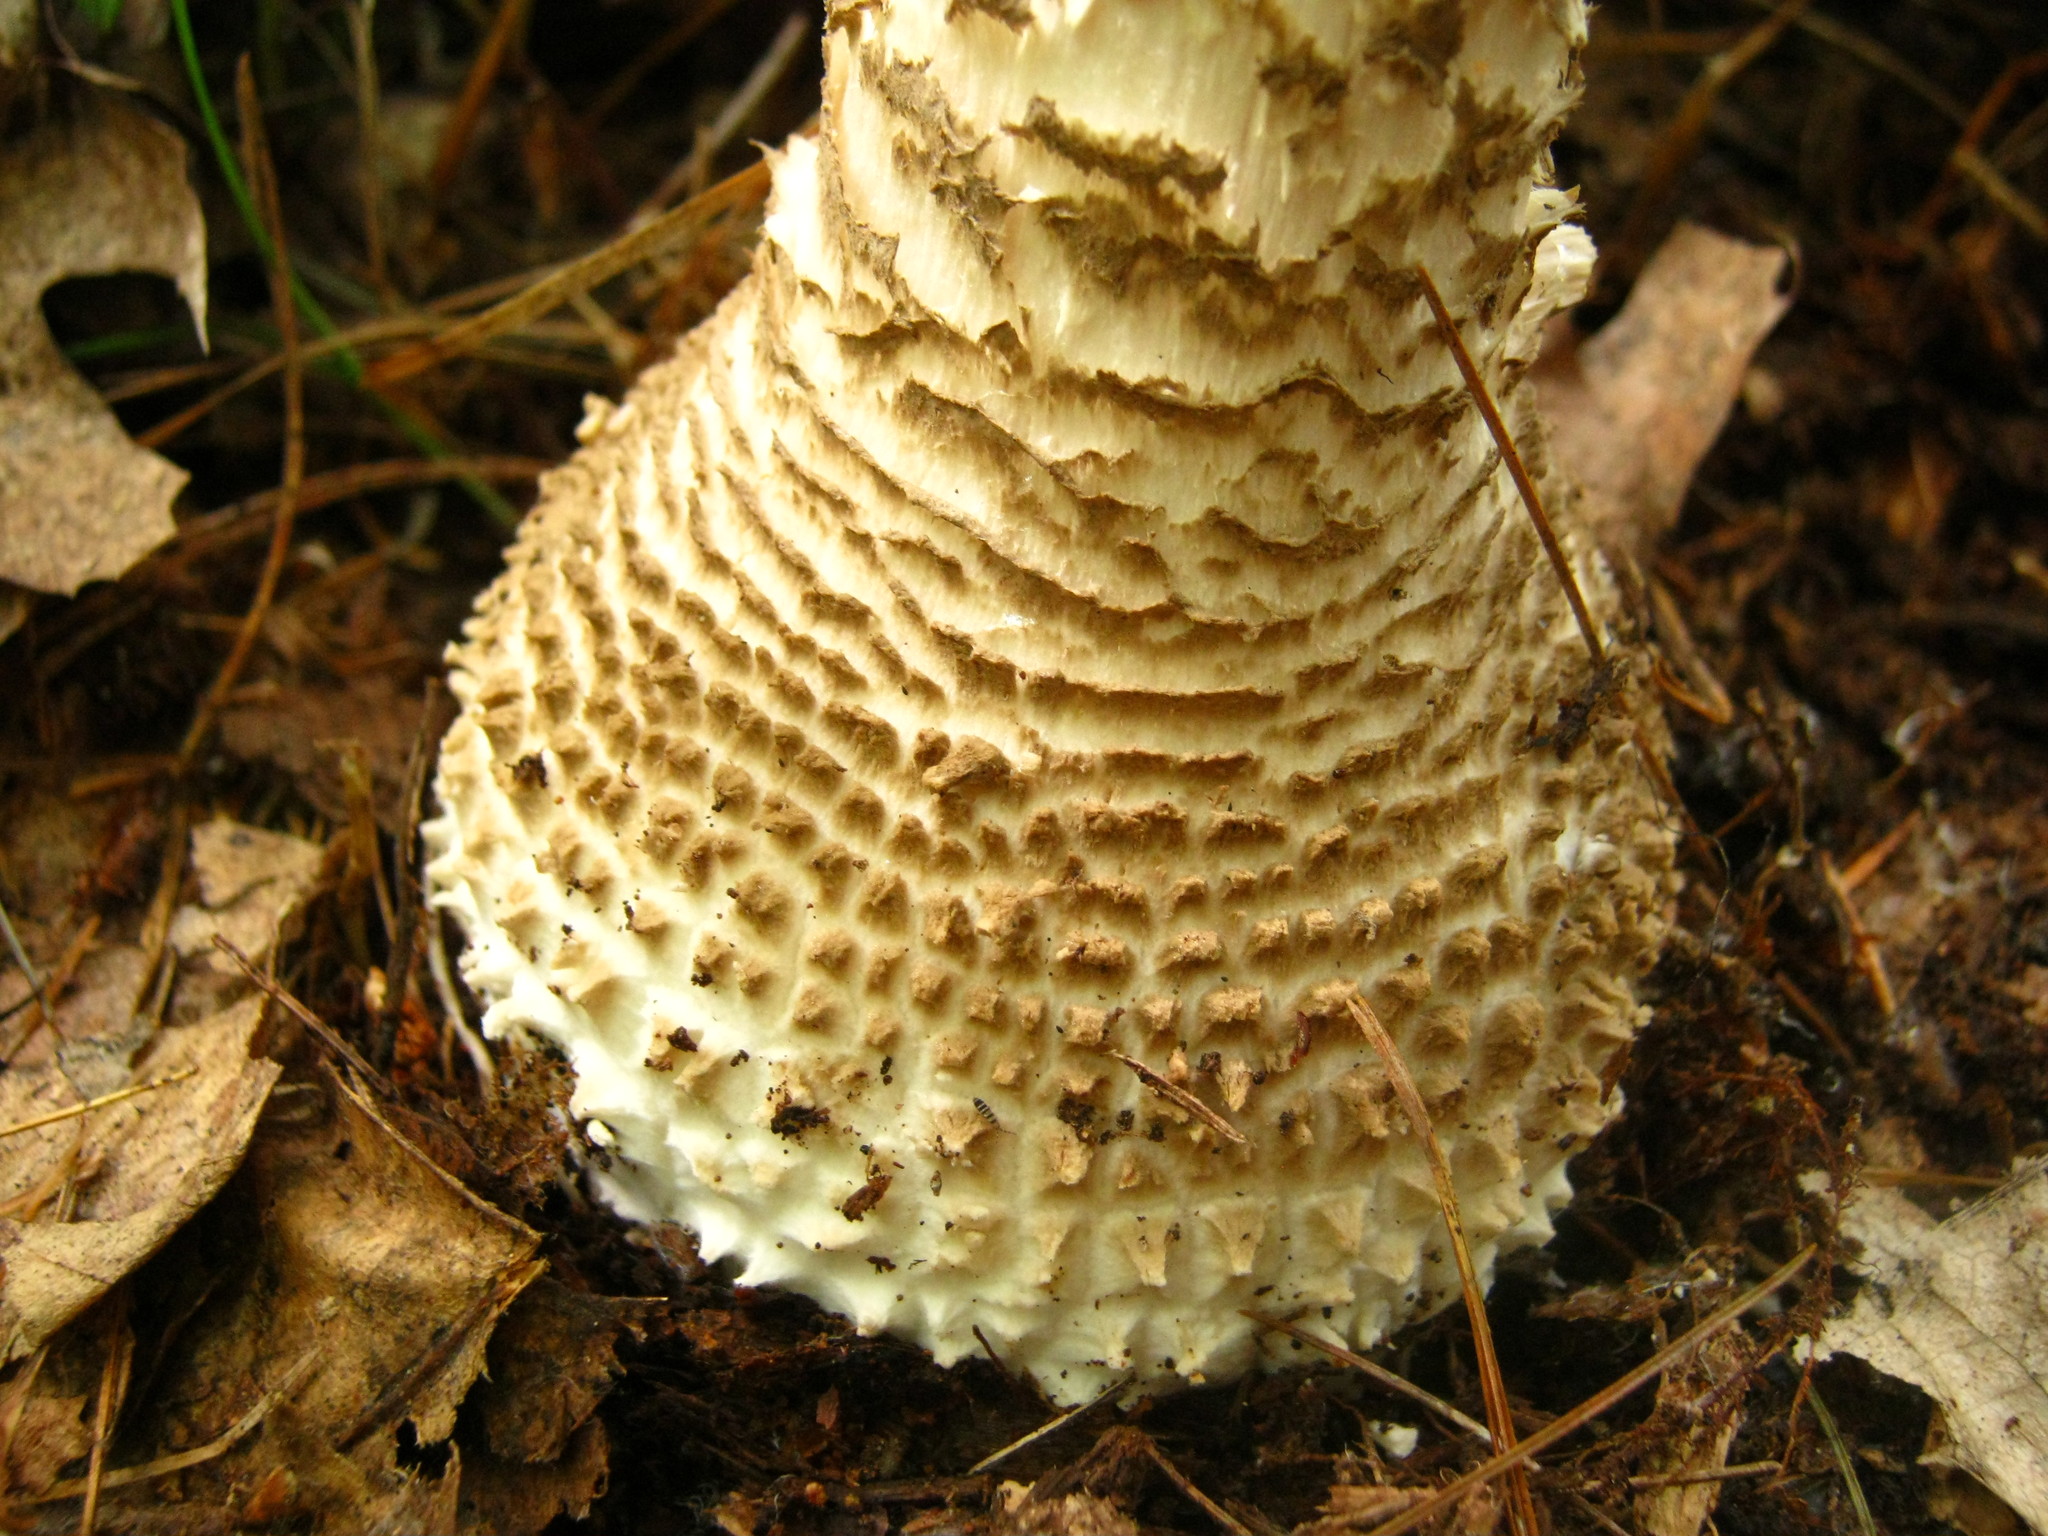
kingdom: Fungi
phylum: Basidiomycota
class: Agaricomycetes
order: Agaricales
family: Amanitaceae
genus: Amanita
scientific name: Amanita atkinsoniana
